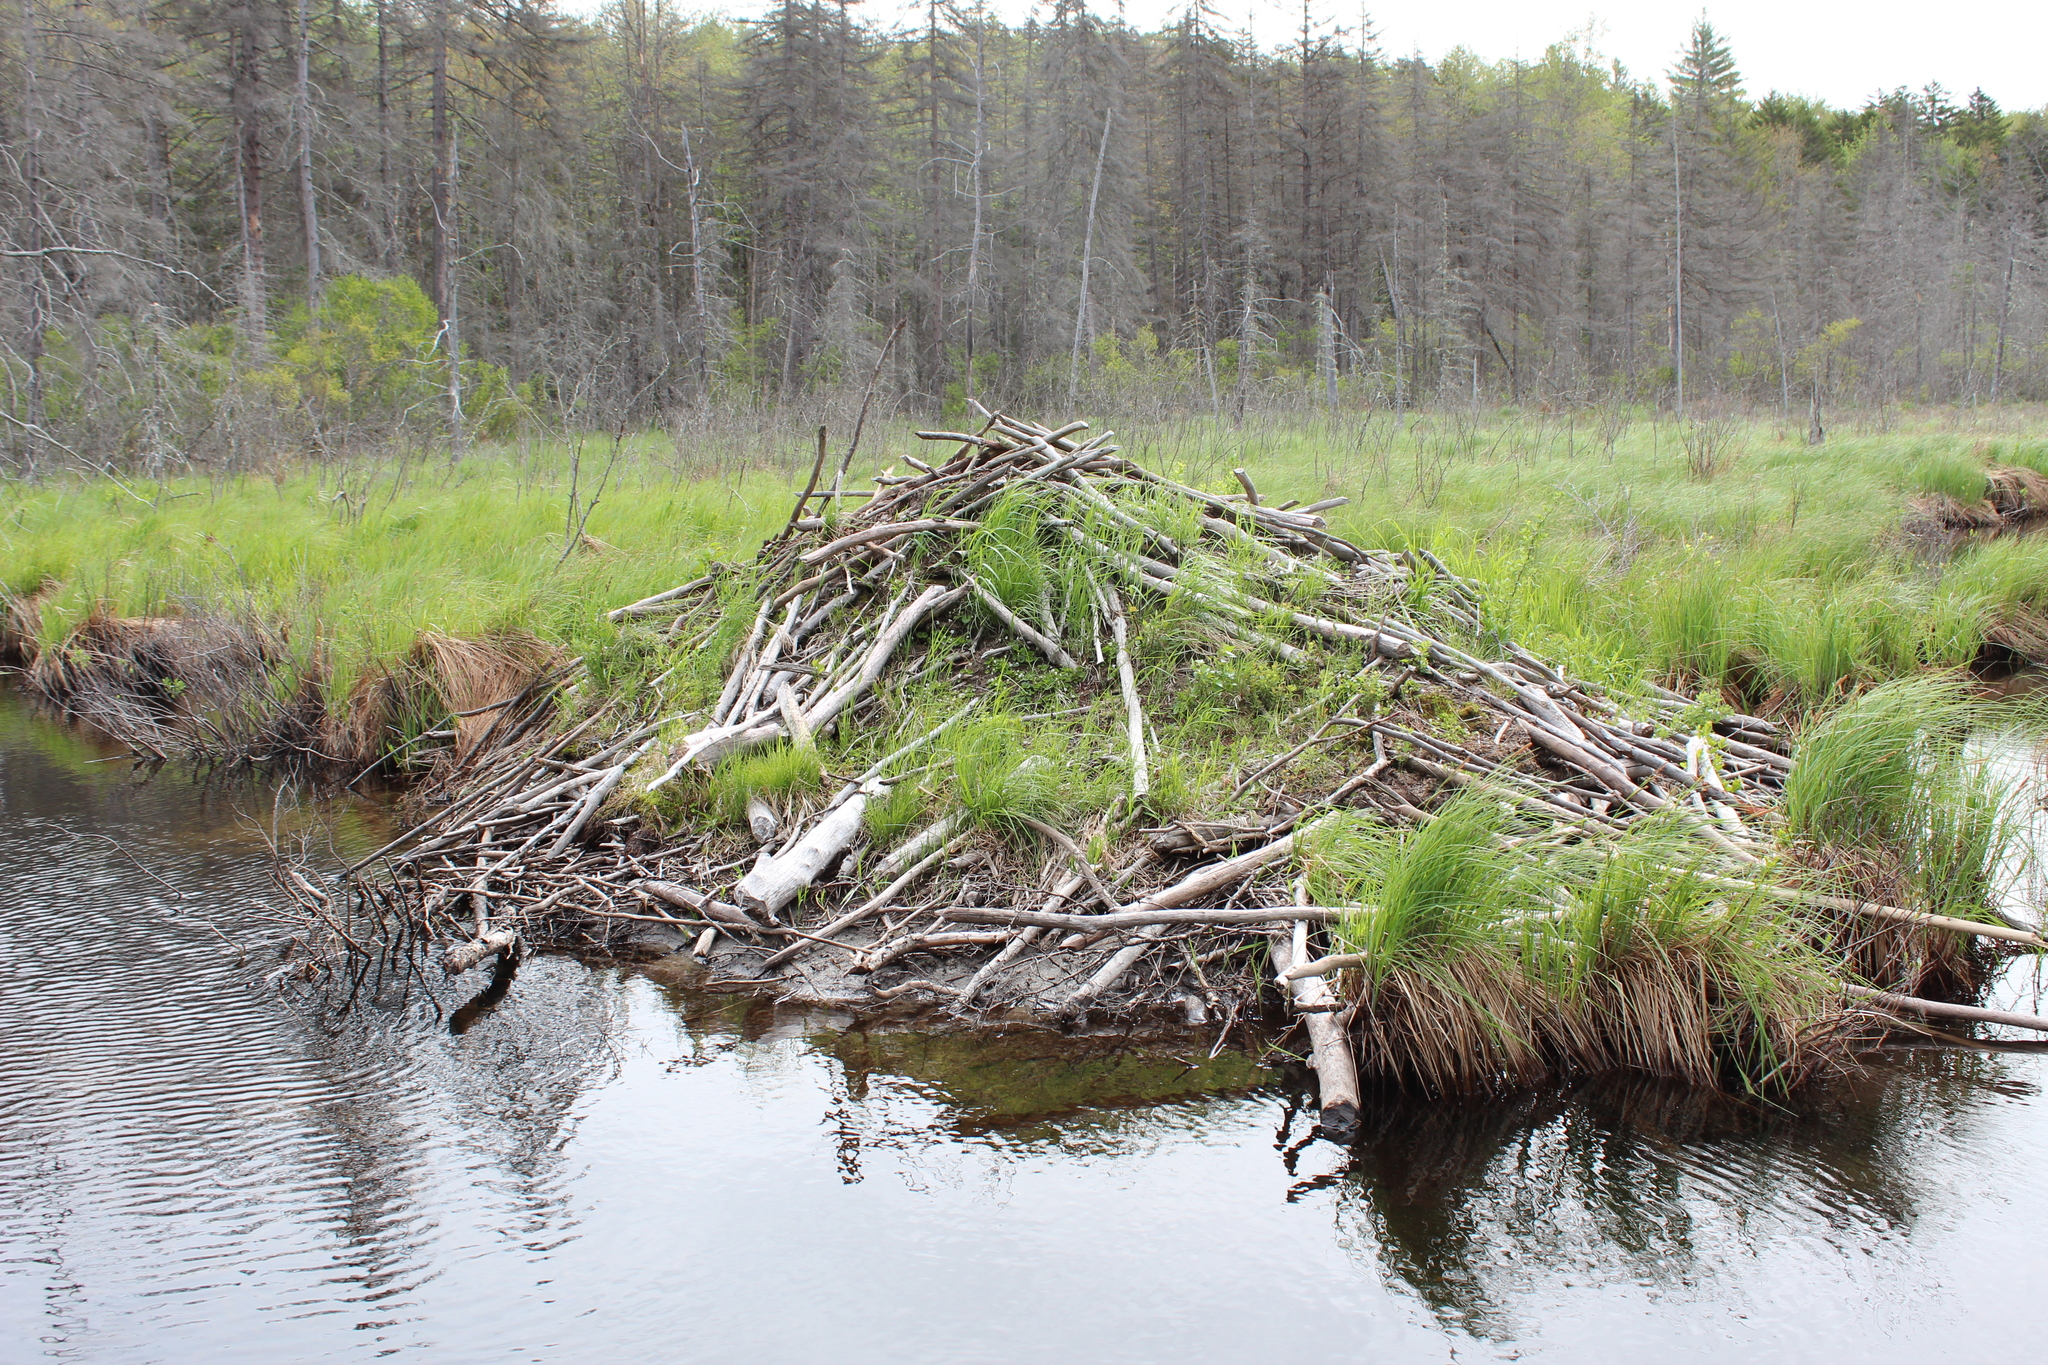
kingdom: Animalia
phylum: Chordata
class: Mammalia
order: Rodentia
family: Castoridae
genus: Castor
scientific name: Castor canadensis
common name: American beaver
